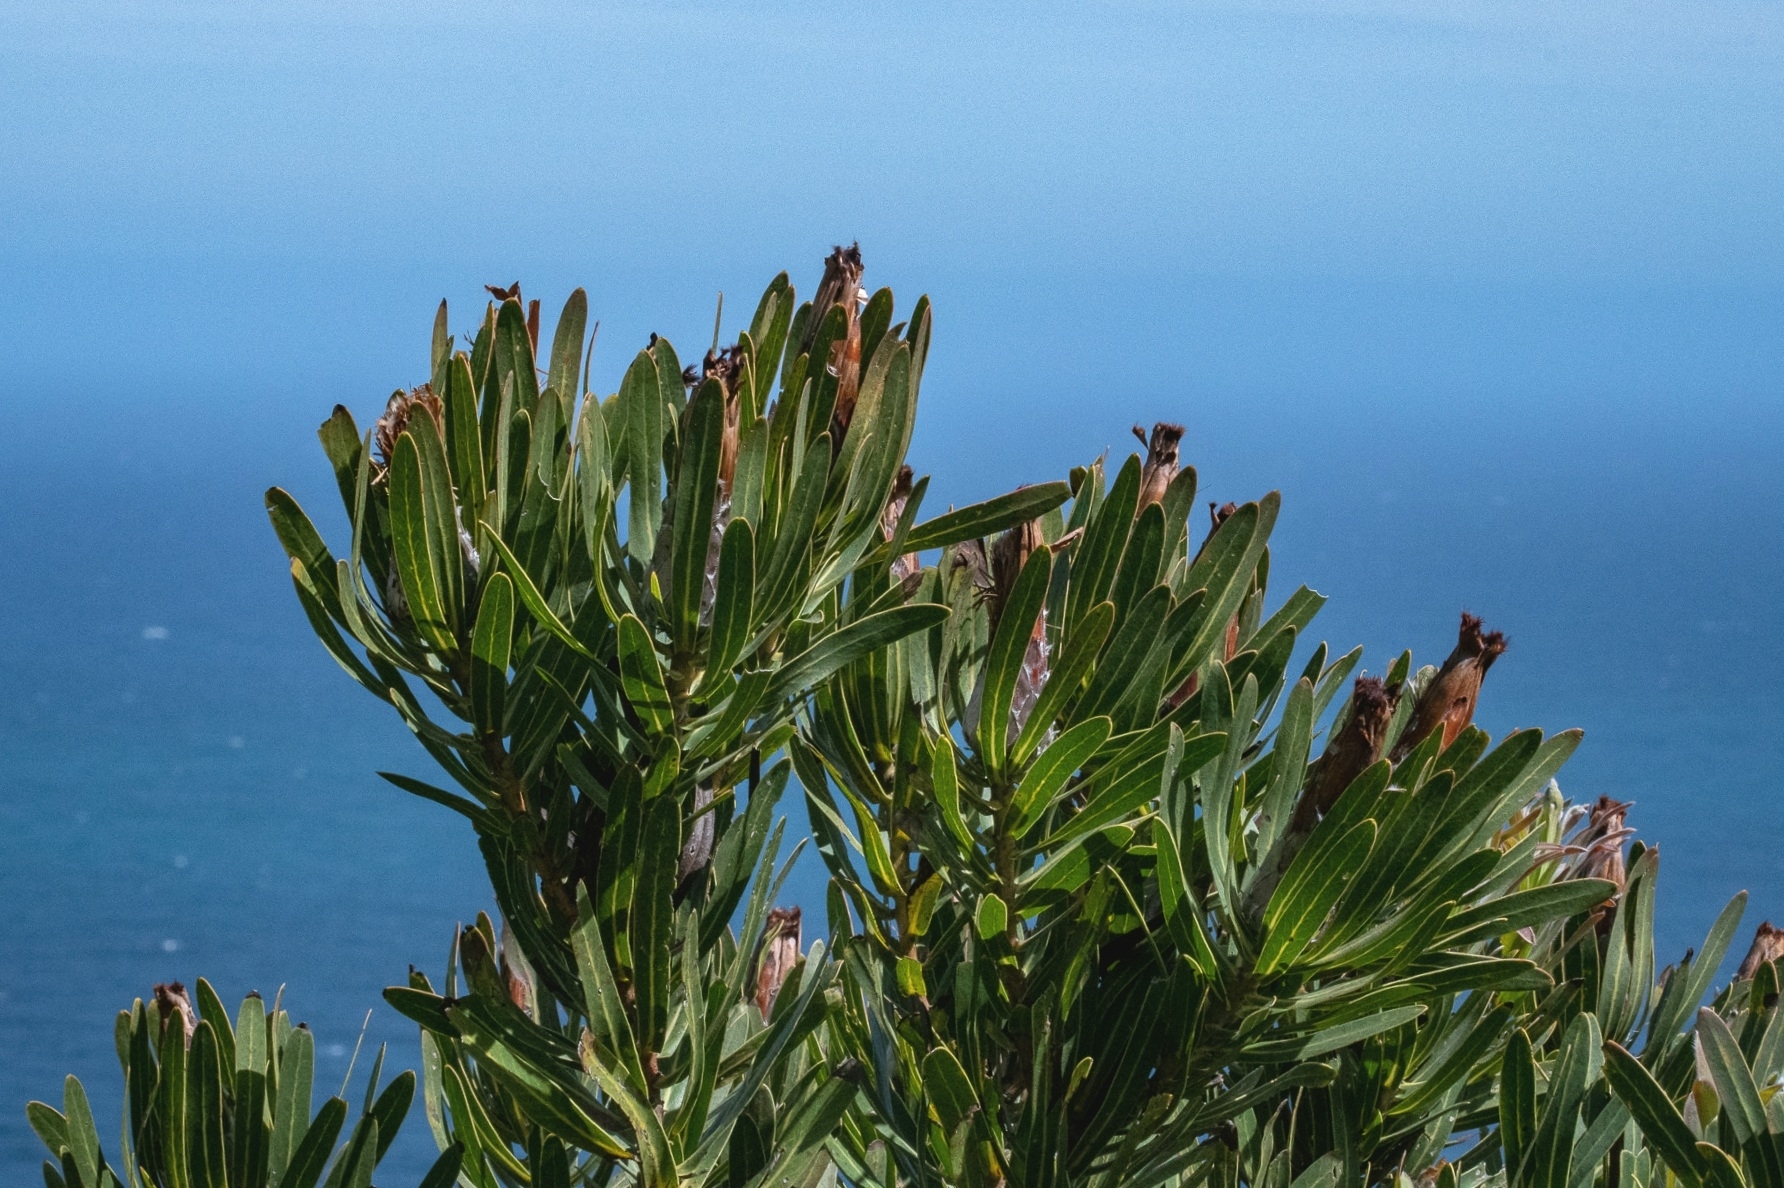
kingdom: Plantae
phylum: Tracheophyta
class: Magnoliopsida
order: Proteales
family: Proteaceae
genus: Protea
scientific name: Protea lepidocarpodendron
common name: Black-bearded protea
